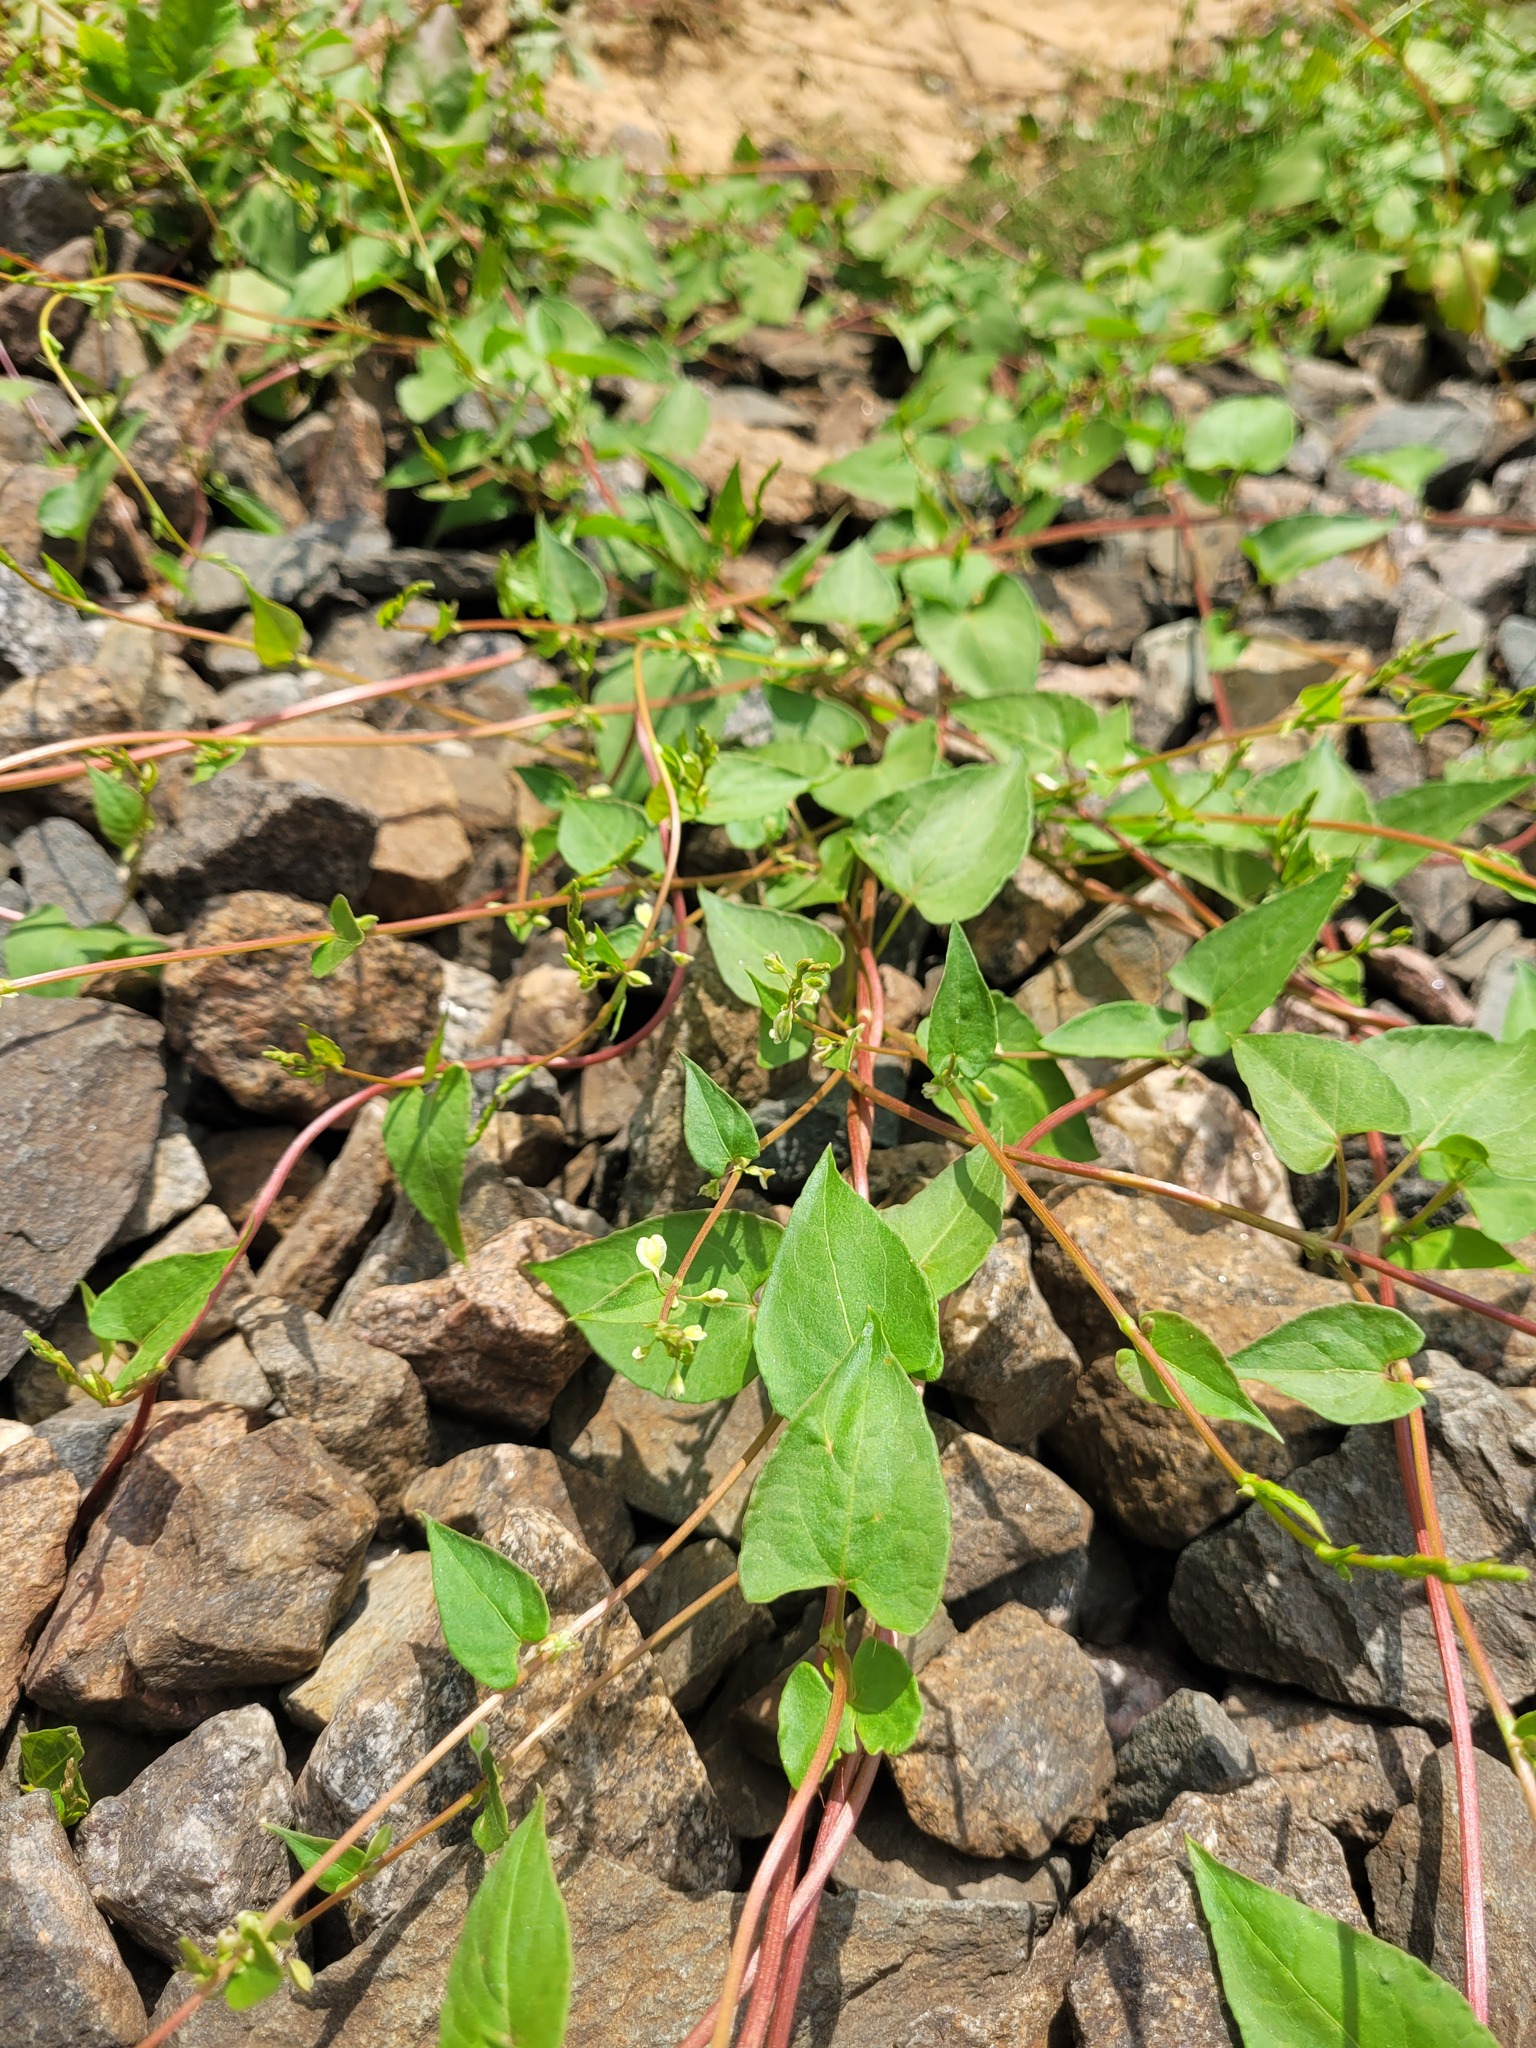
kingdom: Plantae
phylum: Tracheophyta
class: Magnoliopsida
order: Caryophyllales
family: Polygonaceae
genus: Fallopia
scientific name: Fallopia dumetorum
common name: Copse-bindweed
